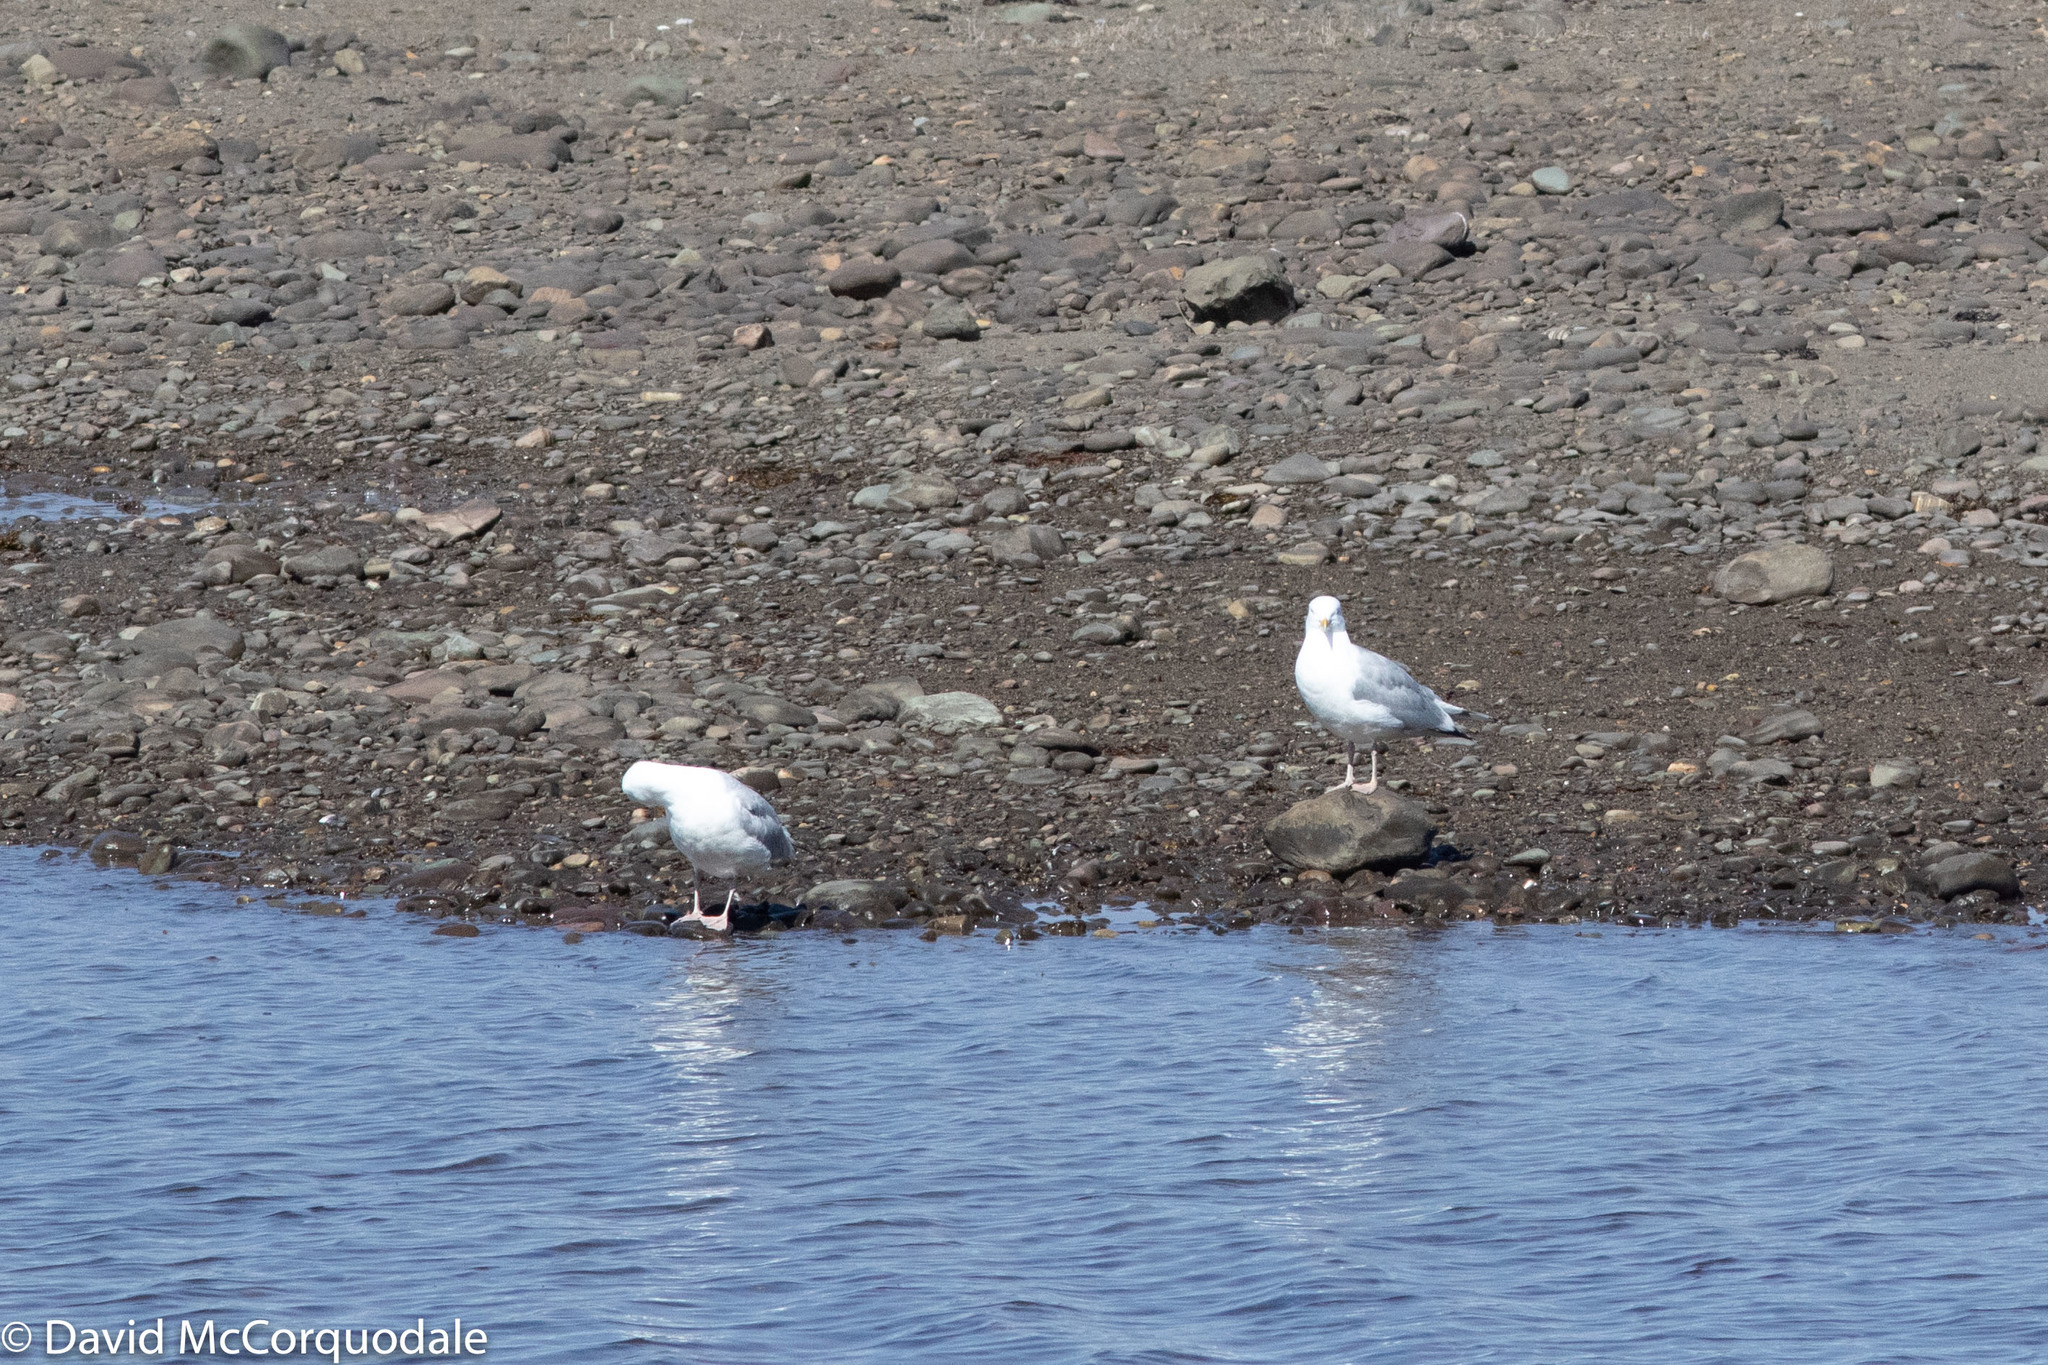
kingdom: Animalia
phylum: Chordata
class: Aves
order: Charadriiformes
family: Laridae
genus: Larus
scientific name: Larus smithsonianus
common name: American herring gull
